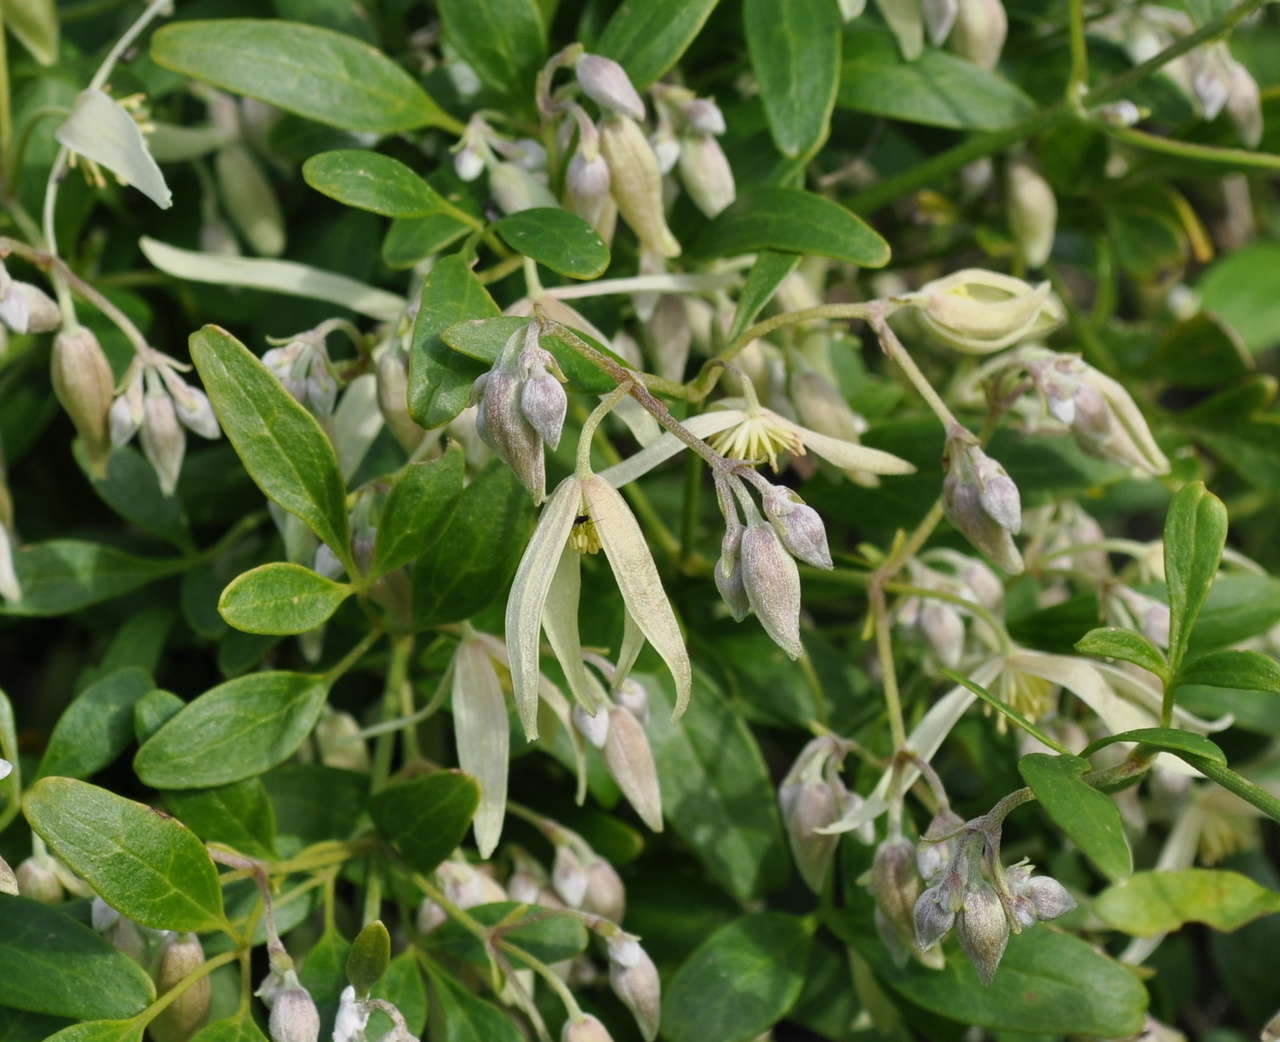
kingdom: Plantae
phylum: Tracheophyta
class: Magnoliopsida
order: Ranunculales
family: Ranunculaceae
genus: Clematis
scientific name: Clematis microphylla
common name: Headachevine
